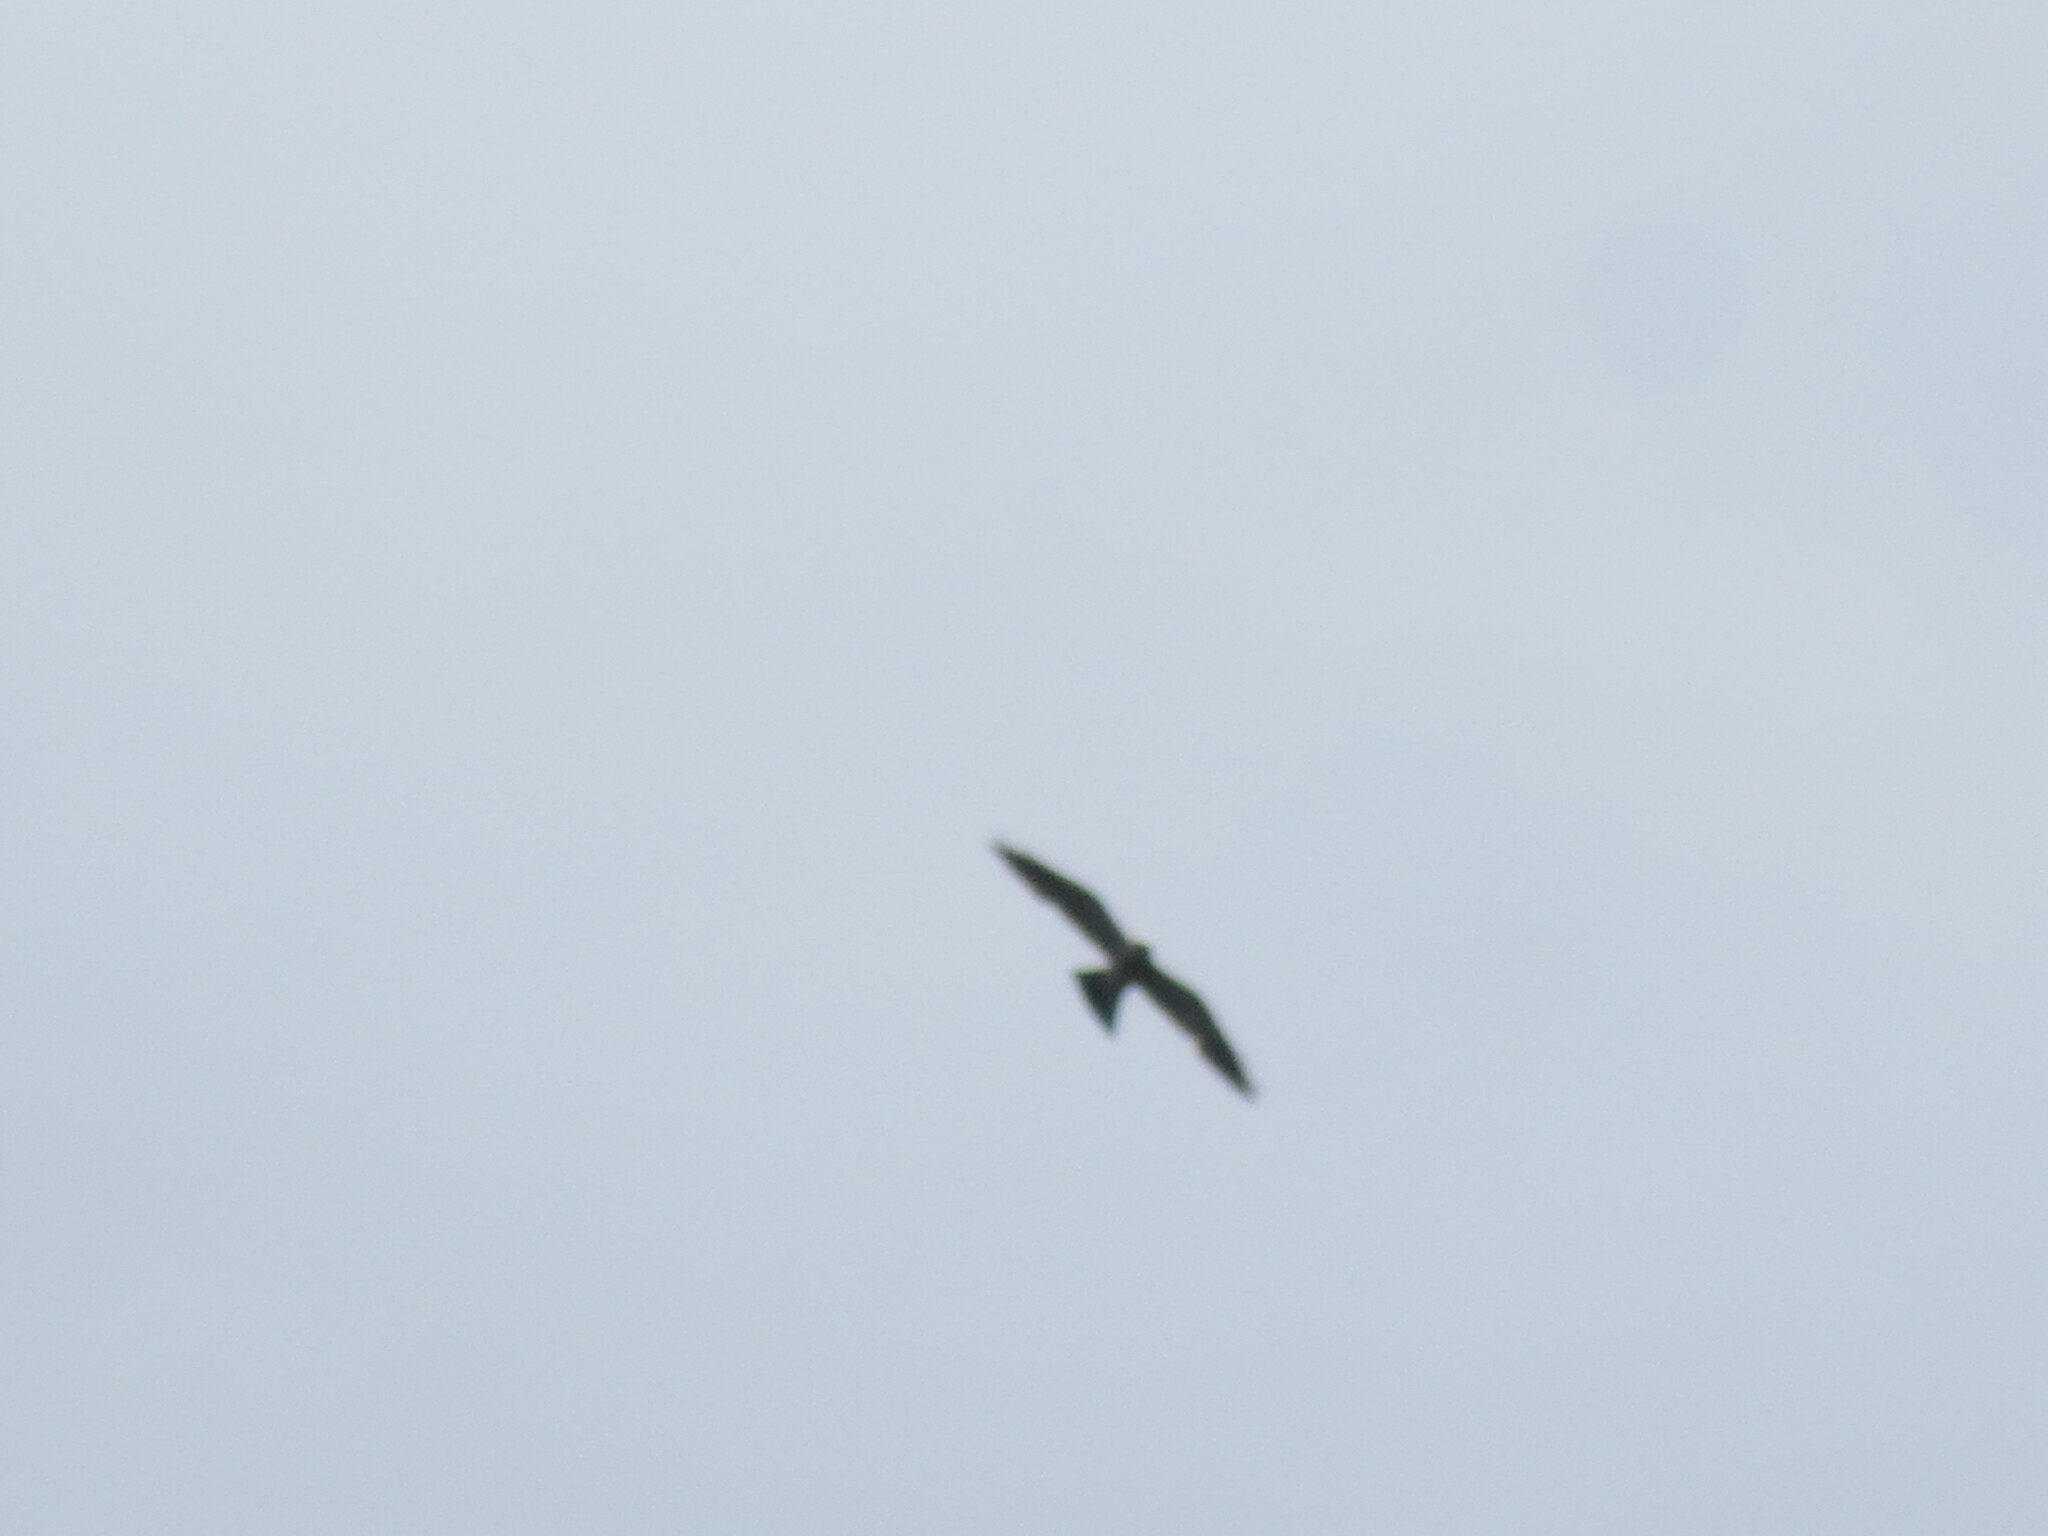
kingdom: Animalia
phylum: Chordata
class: Aves
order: Accipitriformes
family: Accipitridae
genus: Ictinia
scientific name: Ictinia mississippiensis
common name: Mississippi kite
